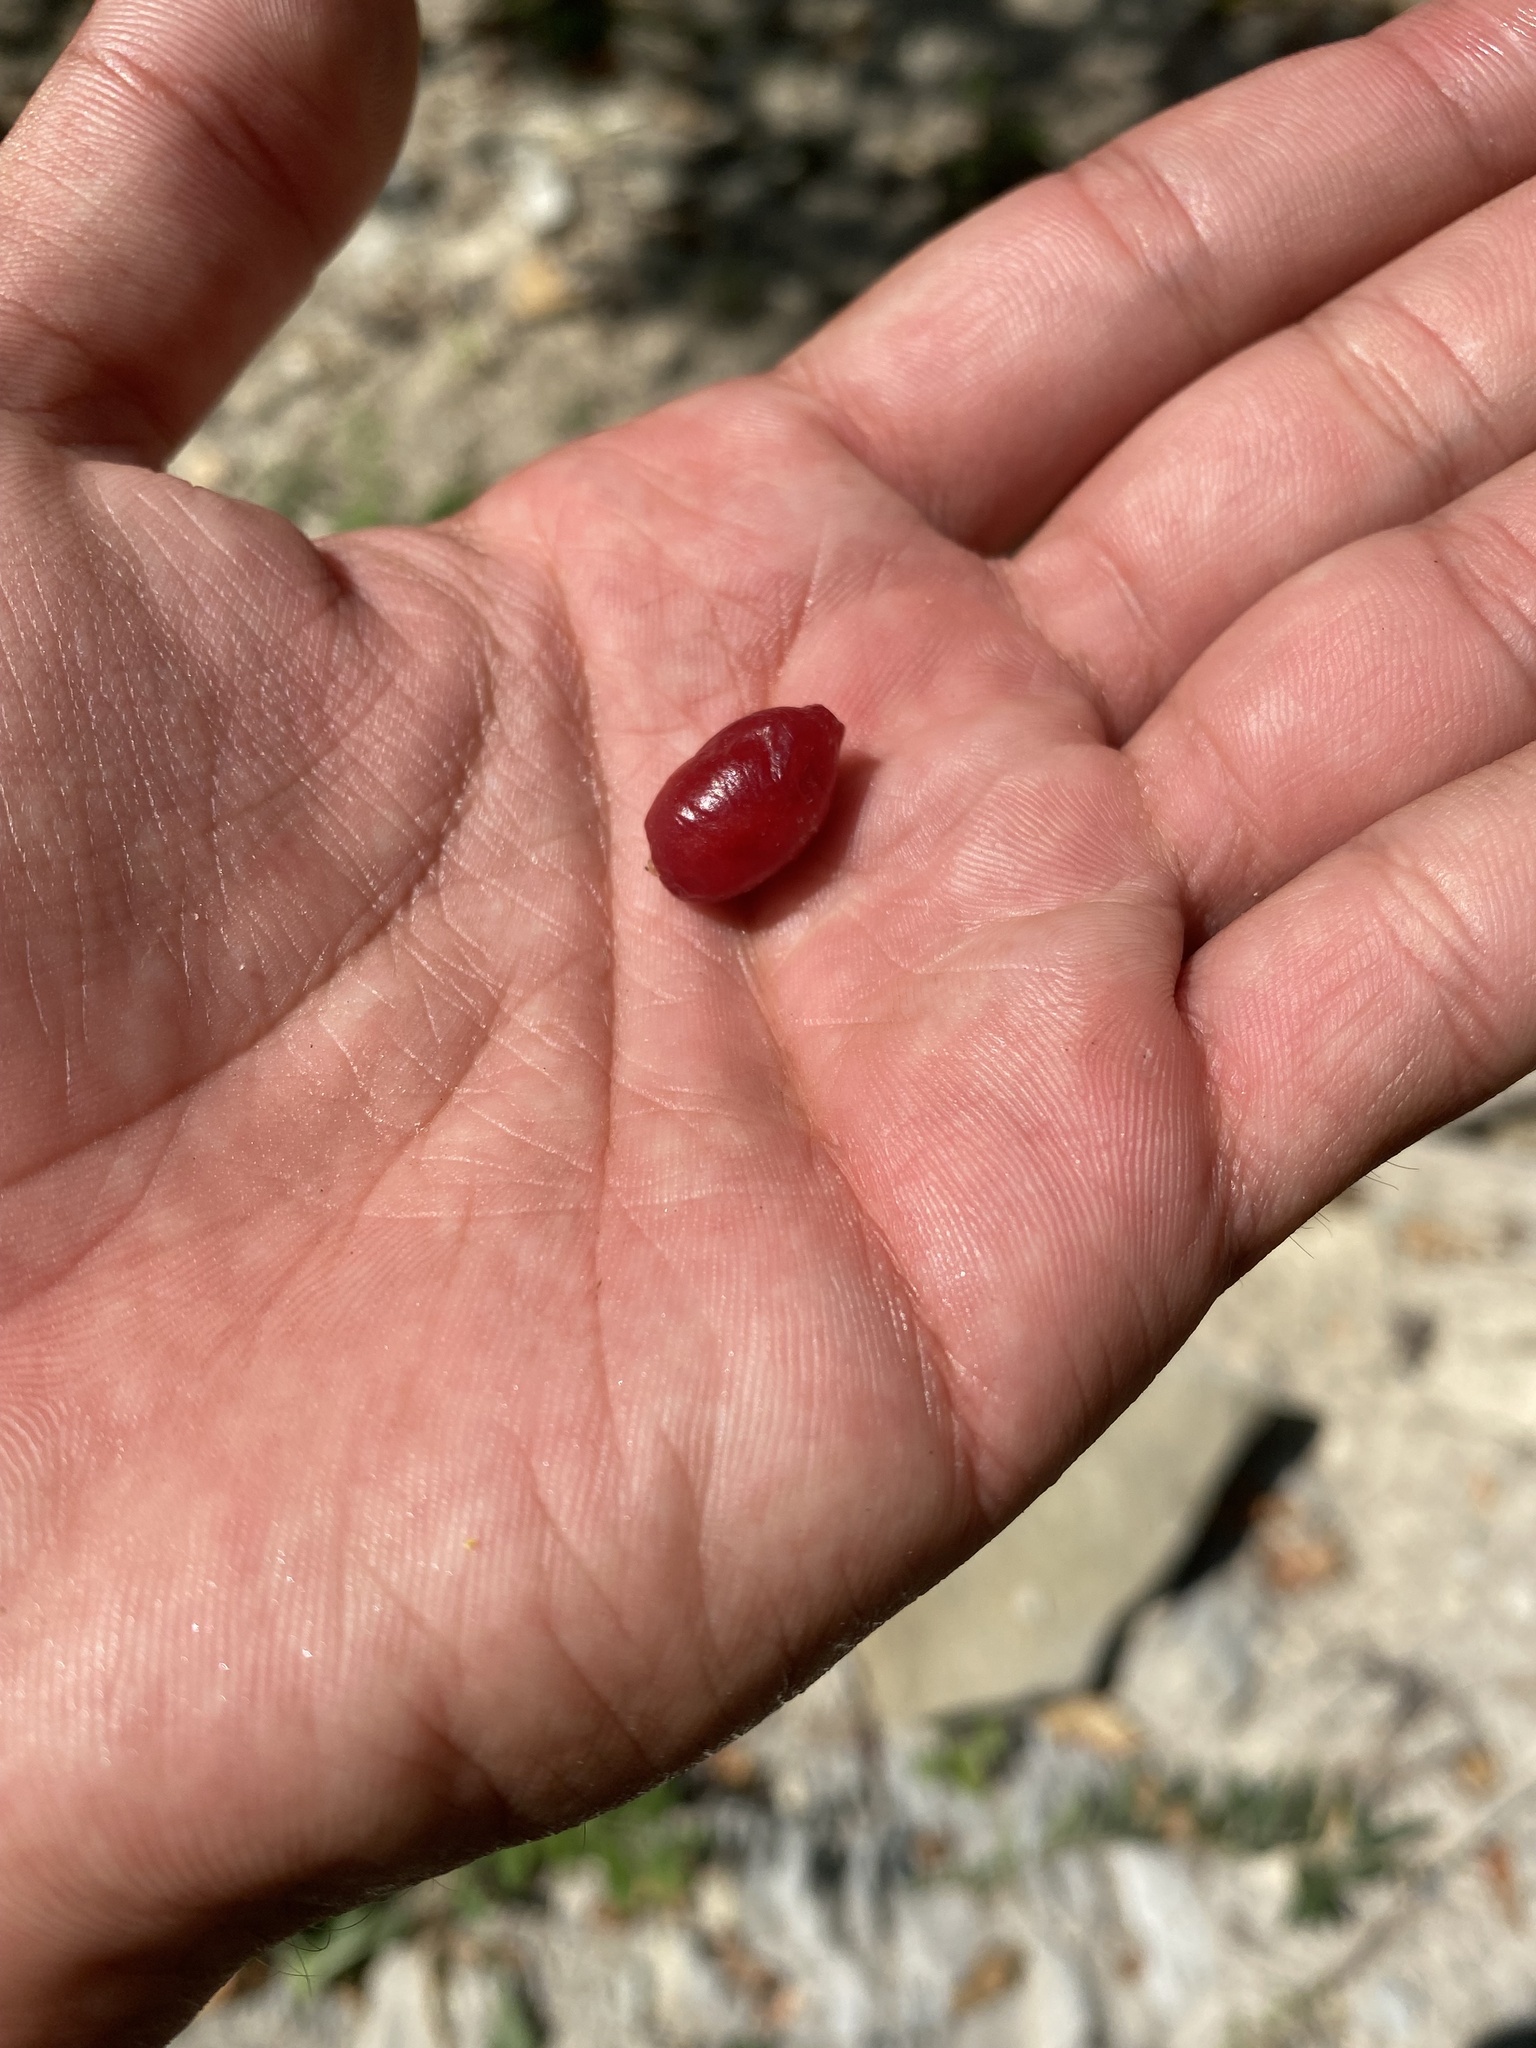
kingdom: Plantae
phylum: Tracheophyta
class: Magnoliopsida
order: Cornales
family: Cornaceae
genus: Cornus
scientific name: Cornus mas
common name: Cornelian-cherry
